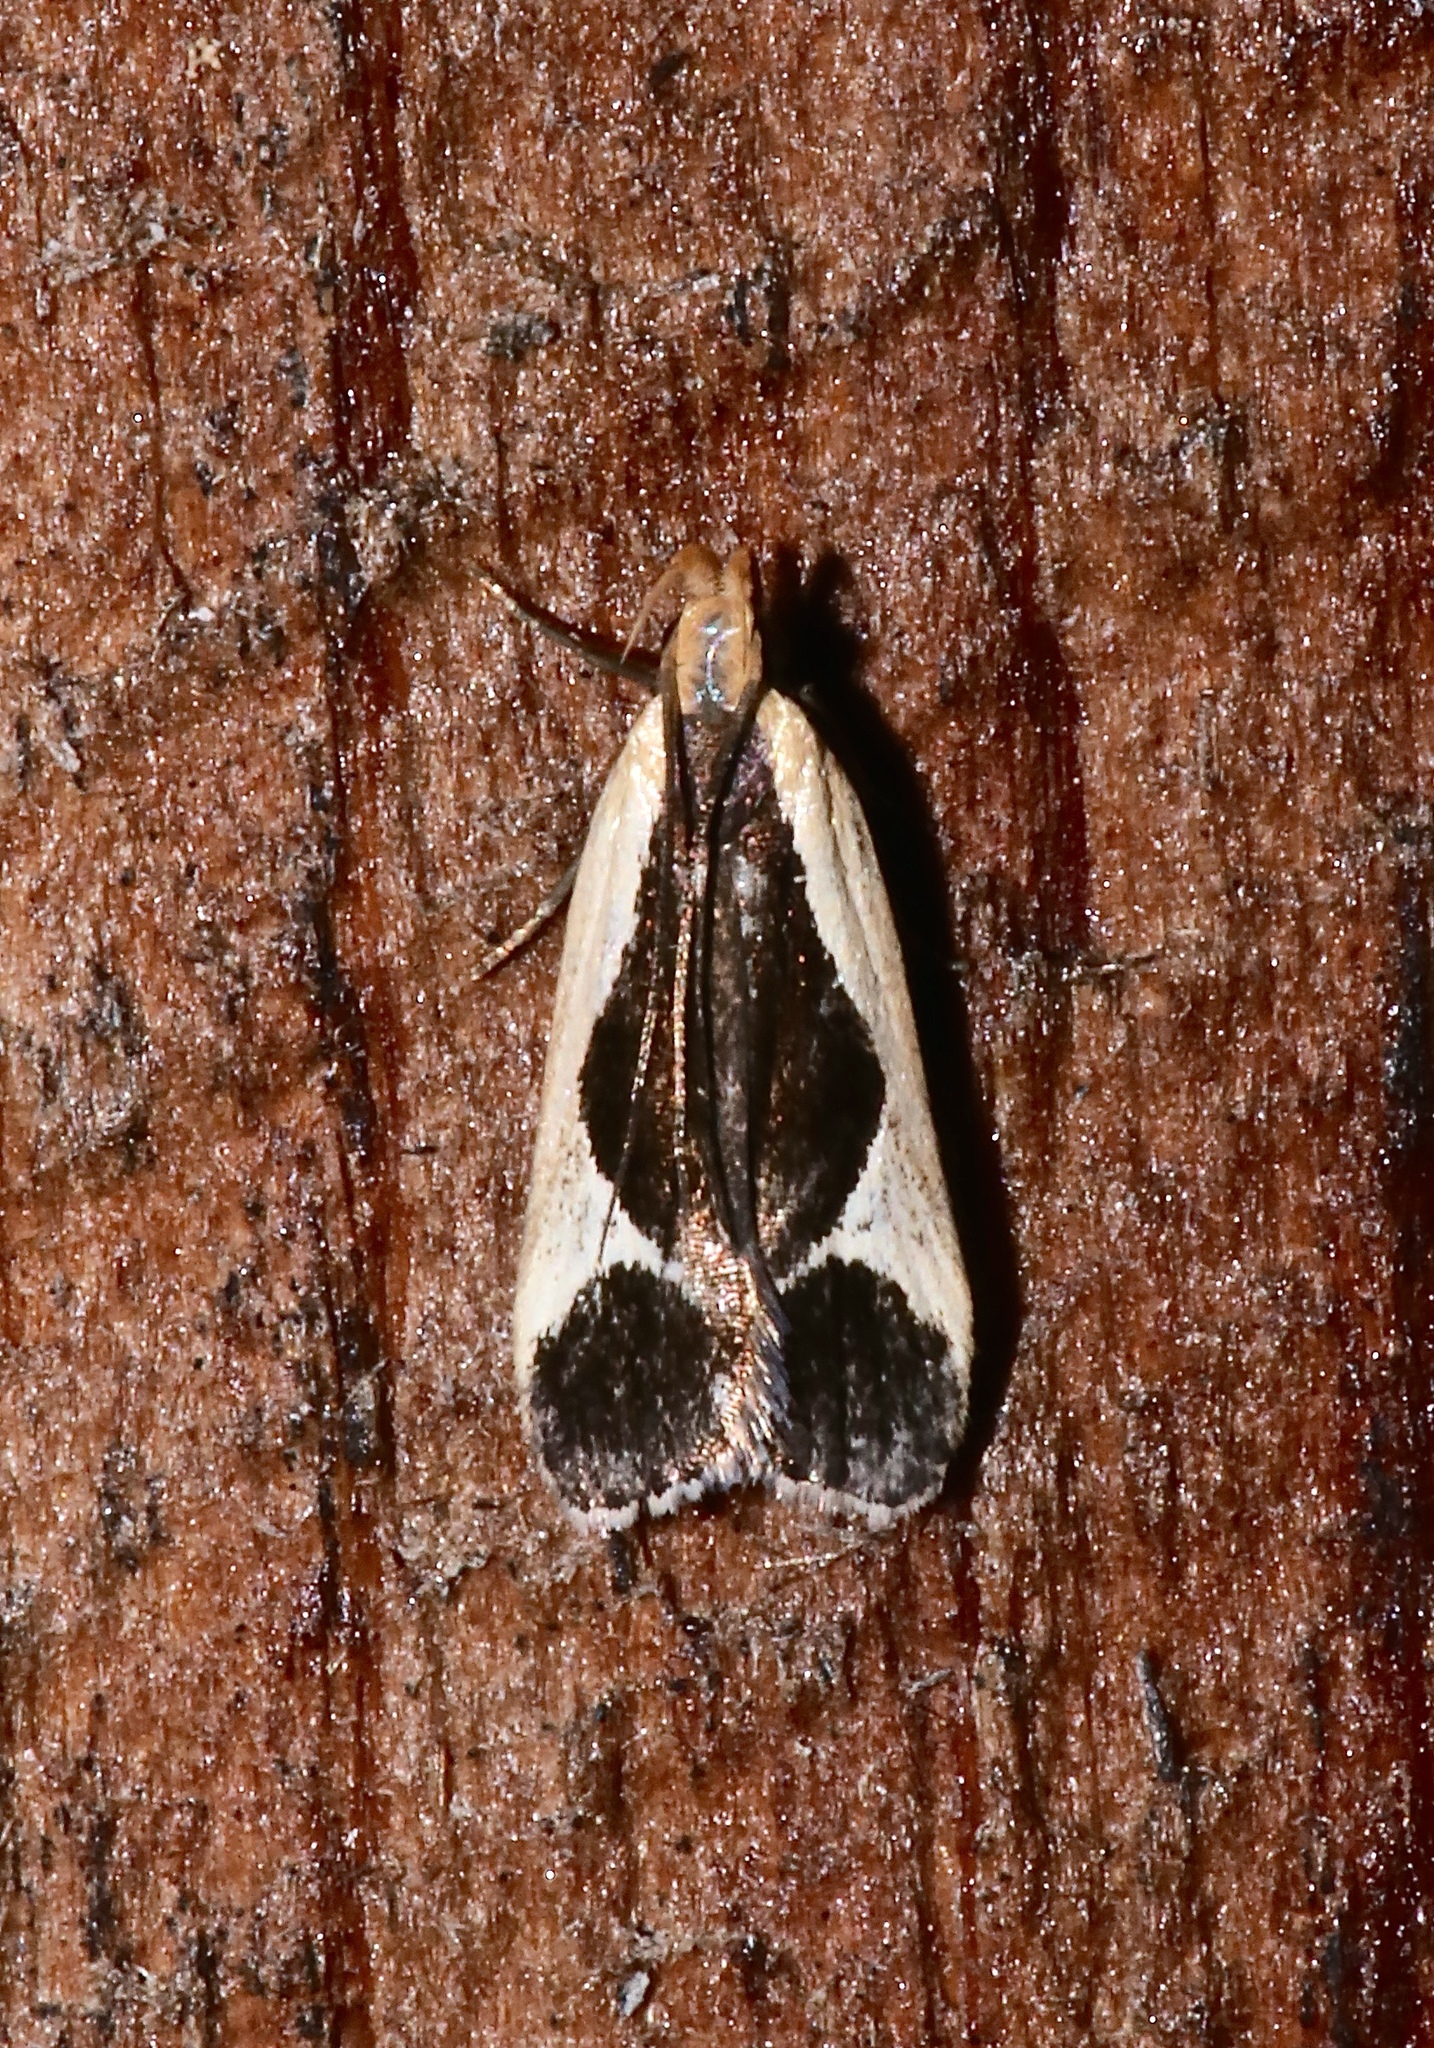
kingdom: Animalia
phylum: Arthropoda
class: Insecta
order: Lepidoptera
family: Gelechiidae
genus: Dichomeris
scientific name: Dichomeris flavocostella
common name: Cream-edged dichomeris moth
